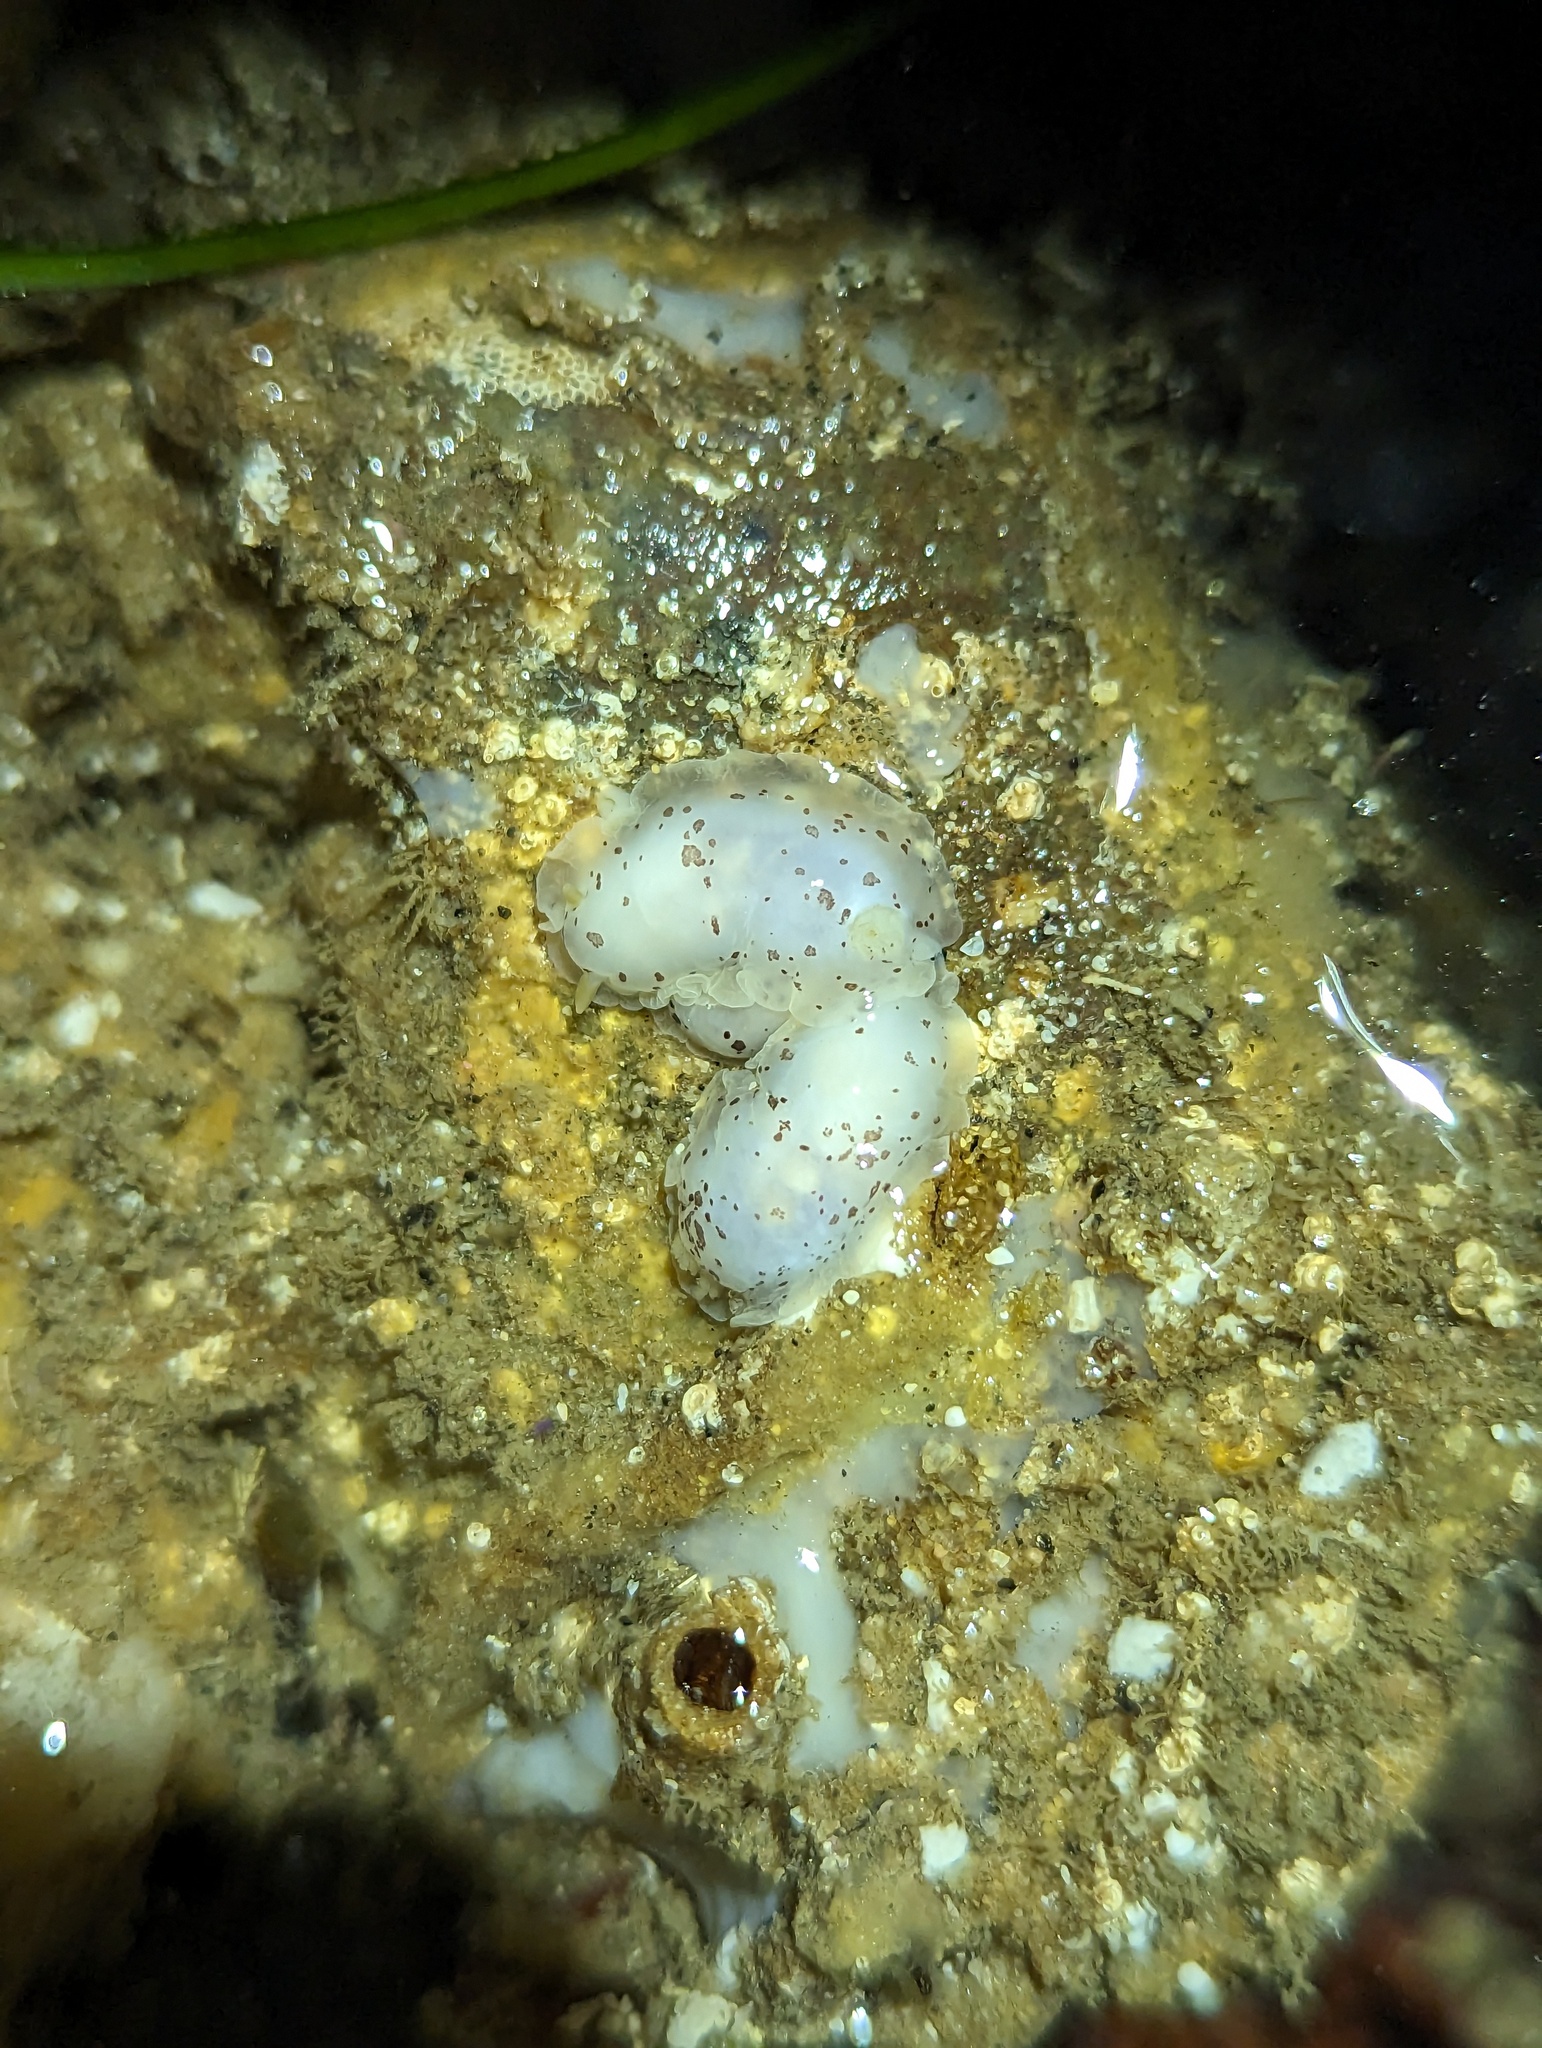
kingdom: Animalia
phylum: Mollusca
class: Gastropoda
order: Nudibranchia
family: Dendrodorididae
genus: Dendrodoris
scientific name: Dendrodoris nigromaculata
